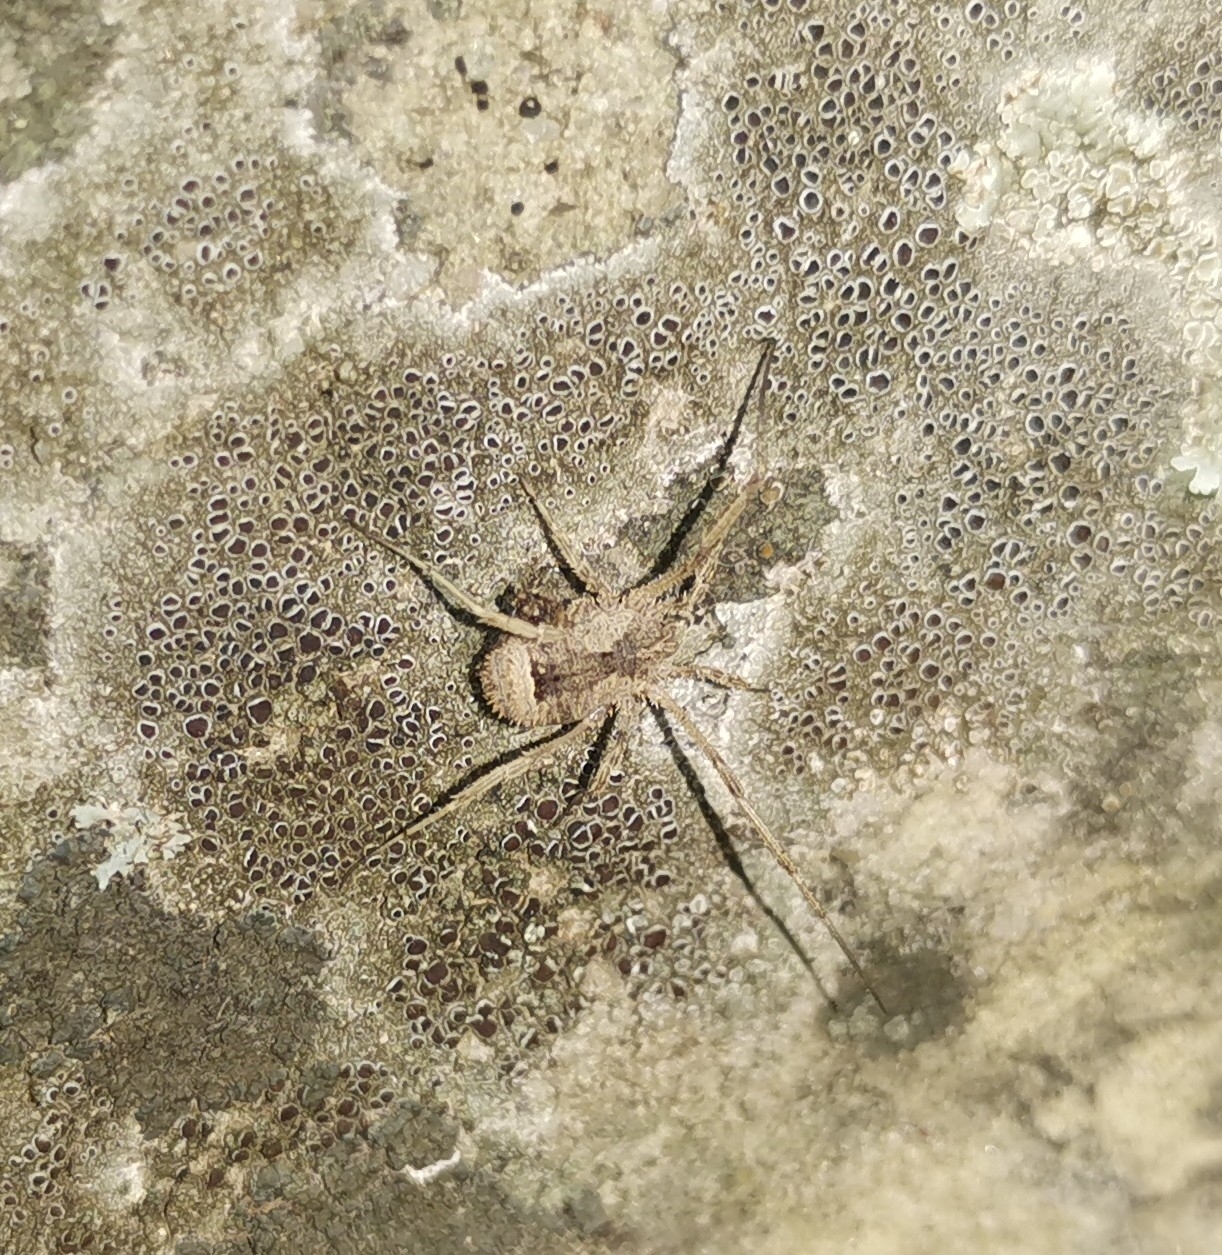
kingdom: Animalia
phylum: Arthropoda
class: Arachnida
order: Opiliones
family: Phalangiidae
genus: Lacinius
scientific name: Lacinius horridus
